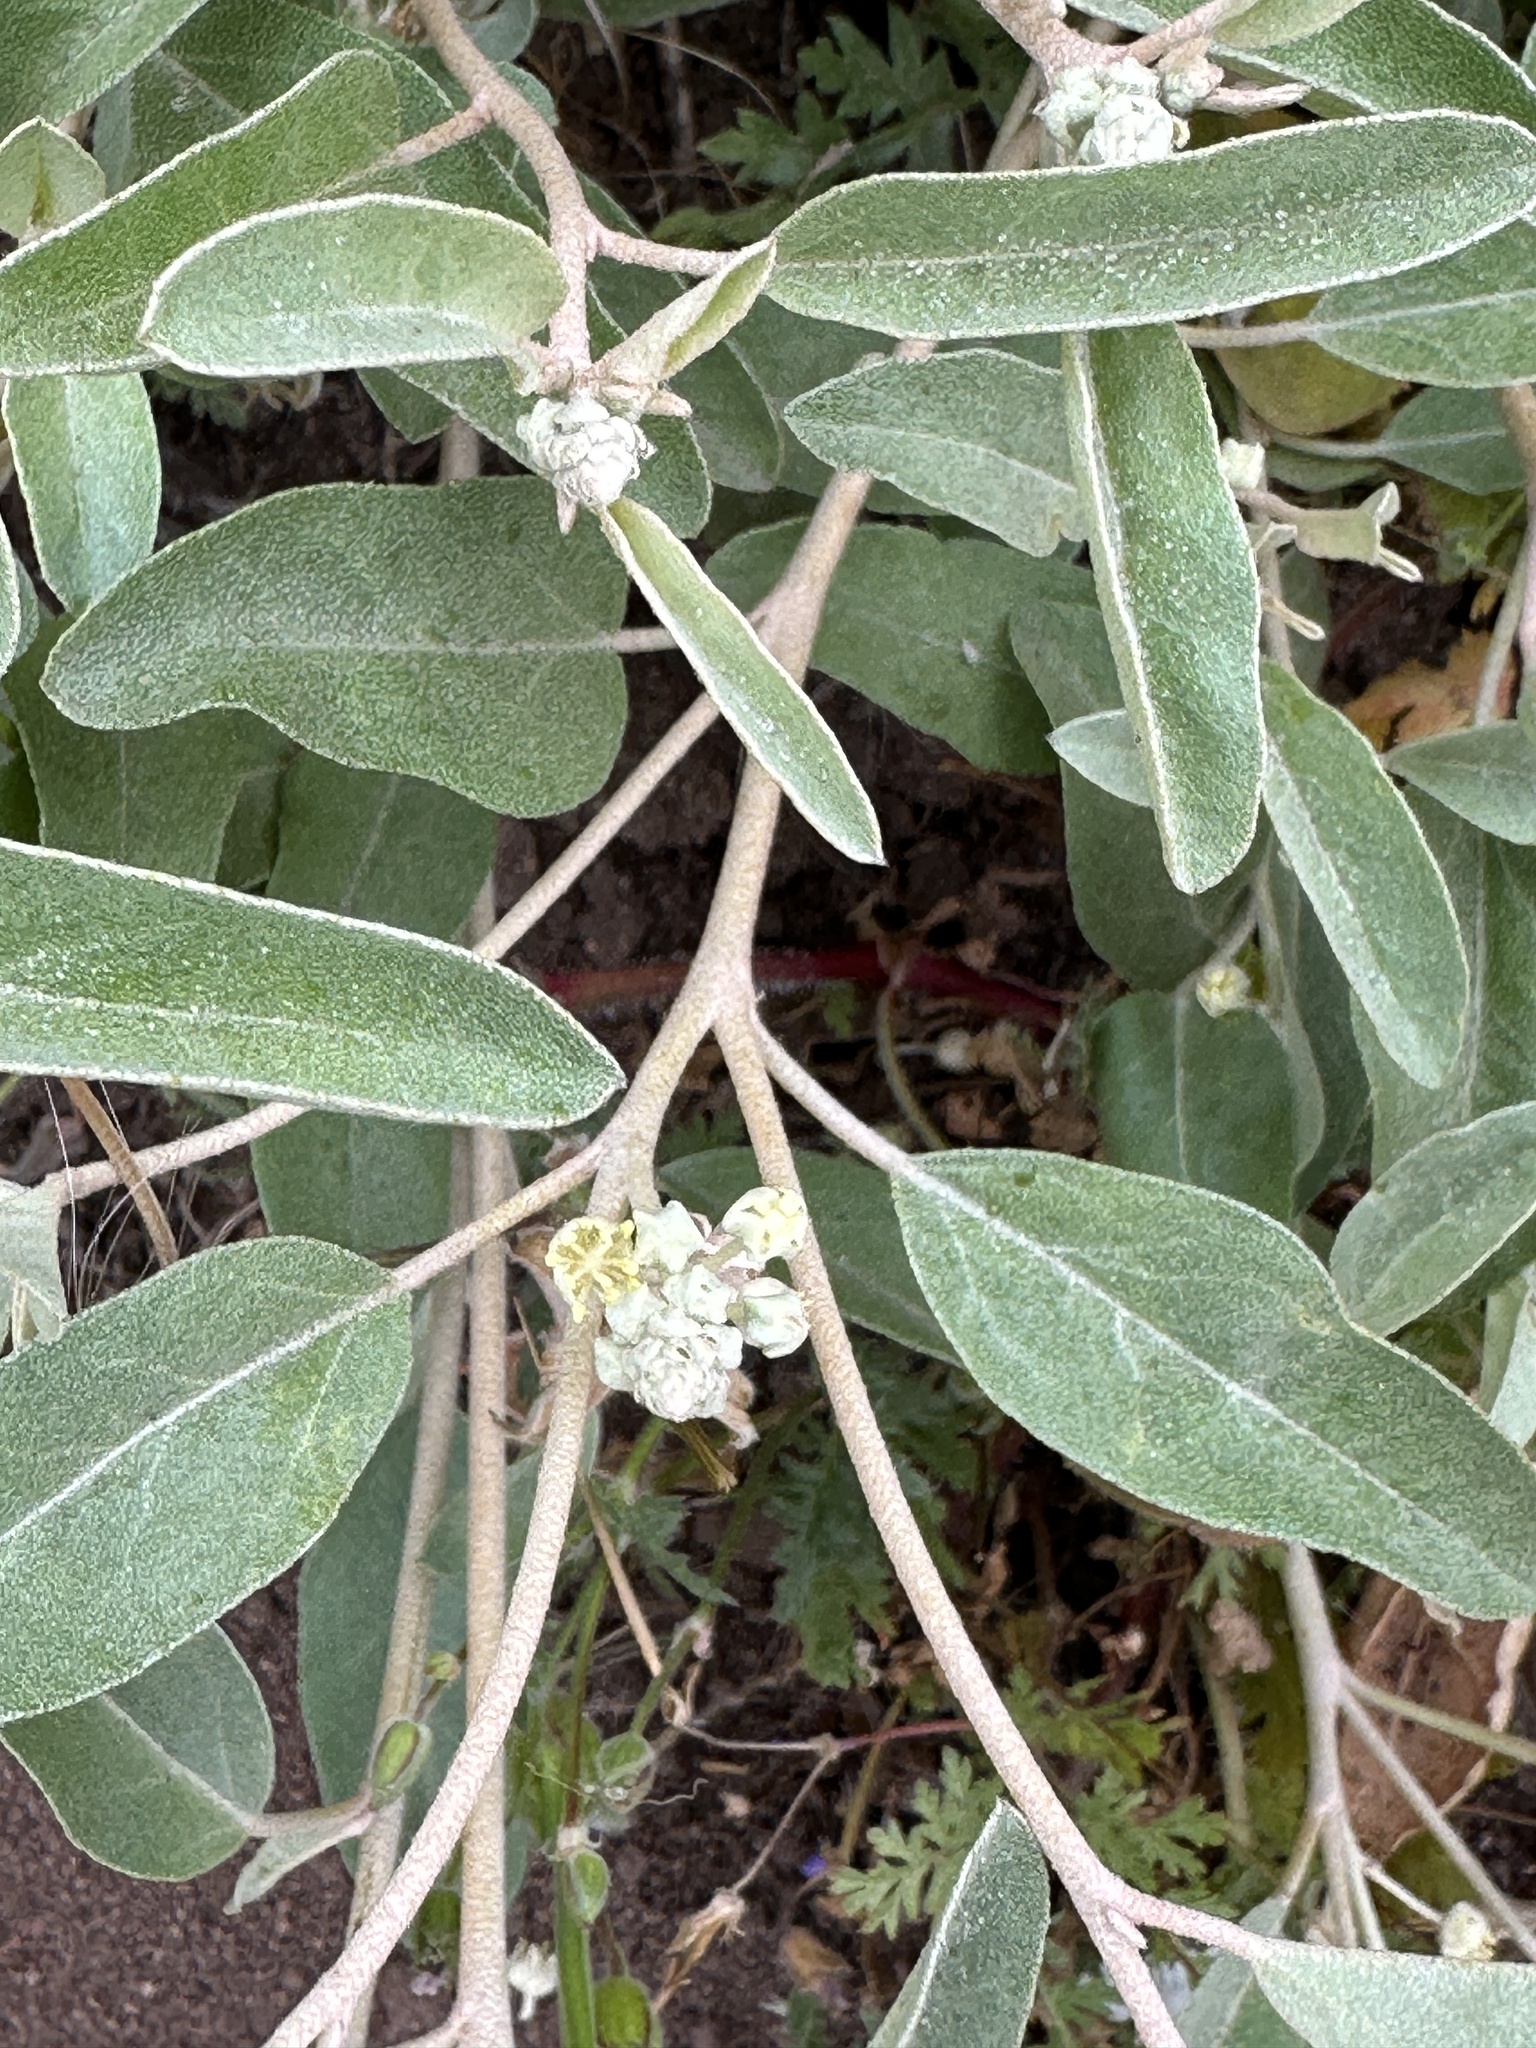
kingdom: Plantae
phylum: Tracheophyta
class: Magnoliopsida
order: Malpighiales
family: Euphorbiaceae
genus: Croton
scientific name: Croton californicus
